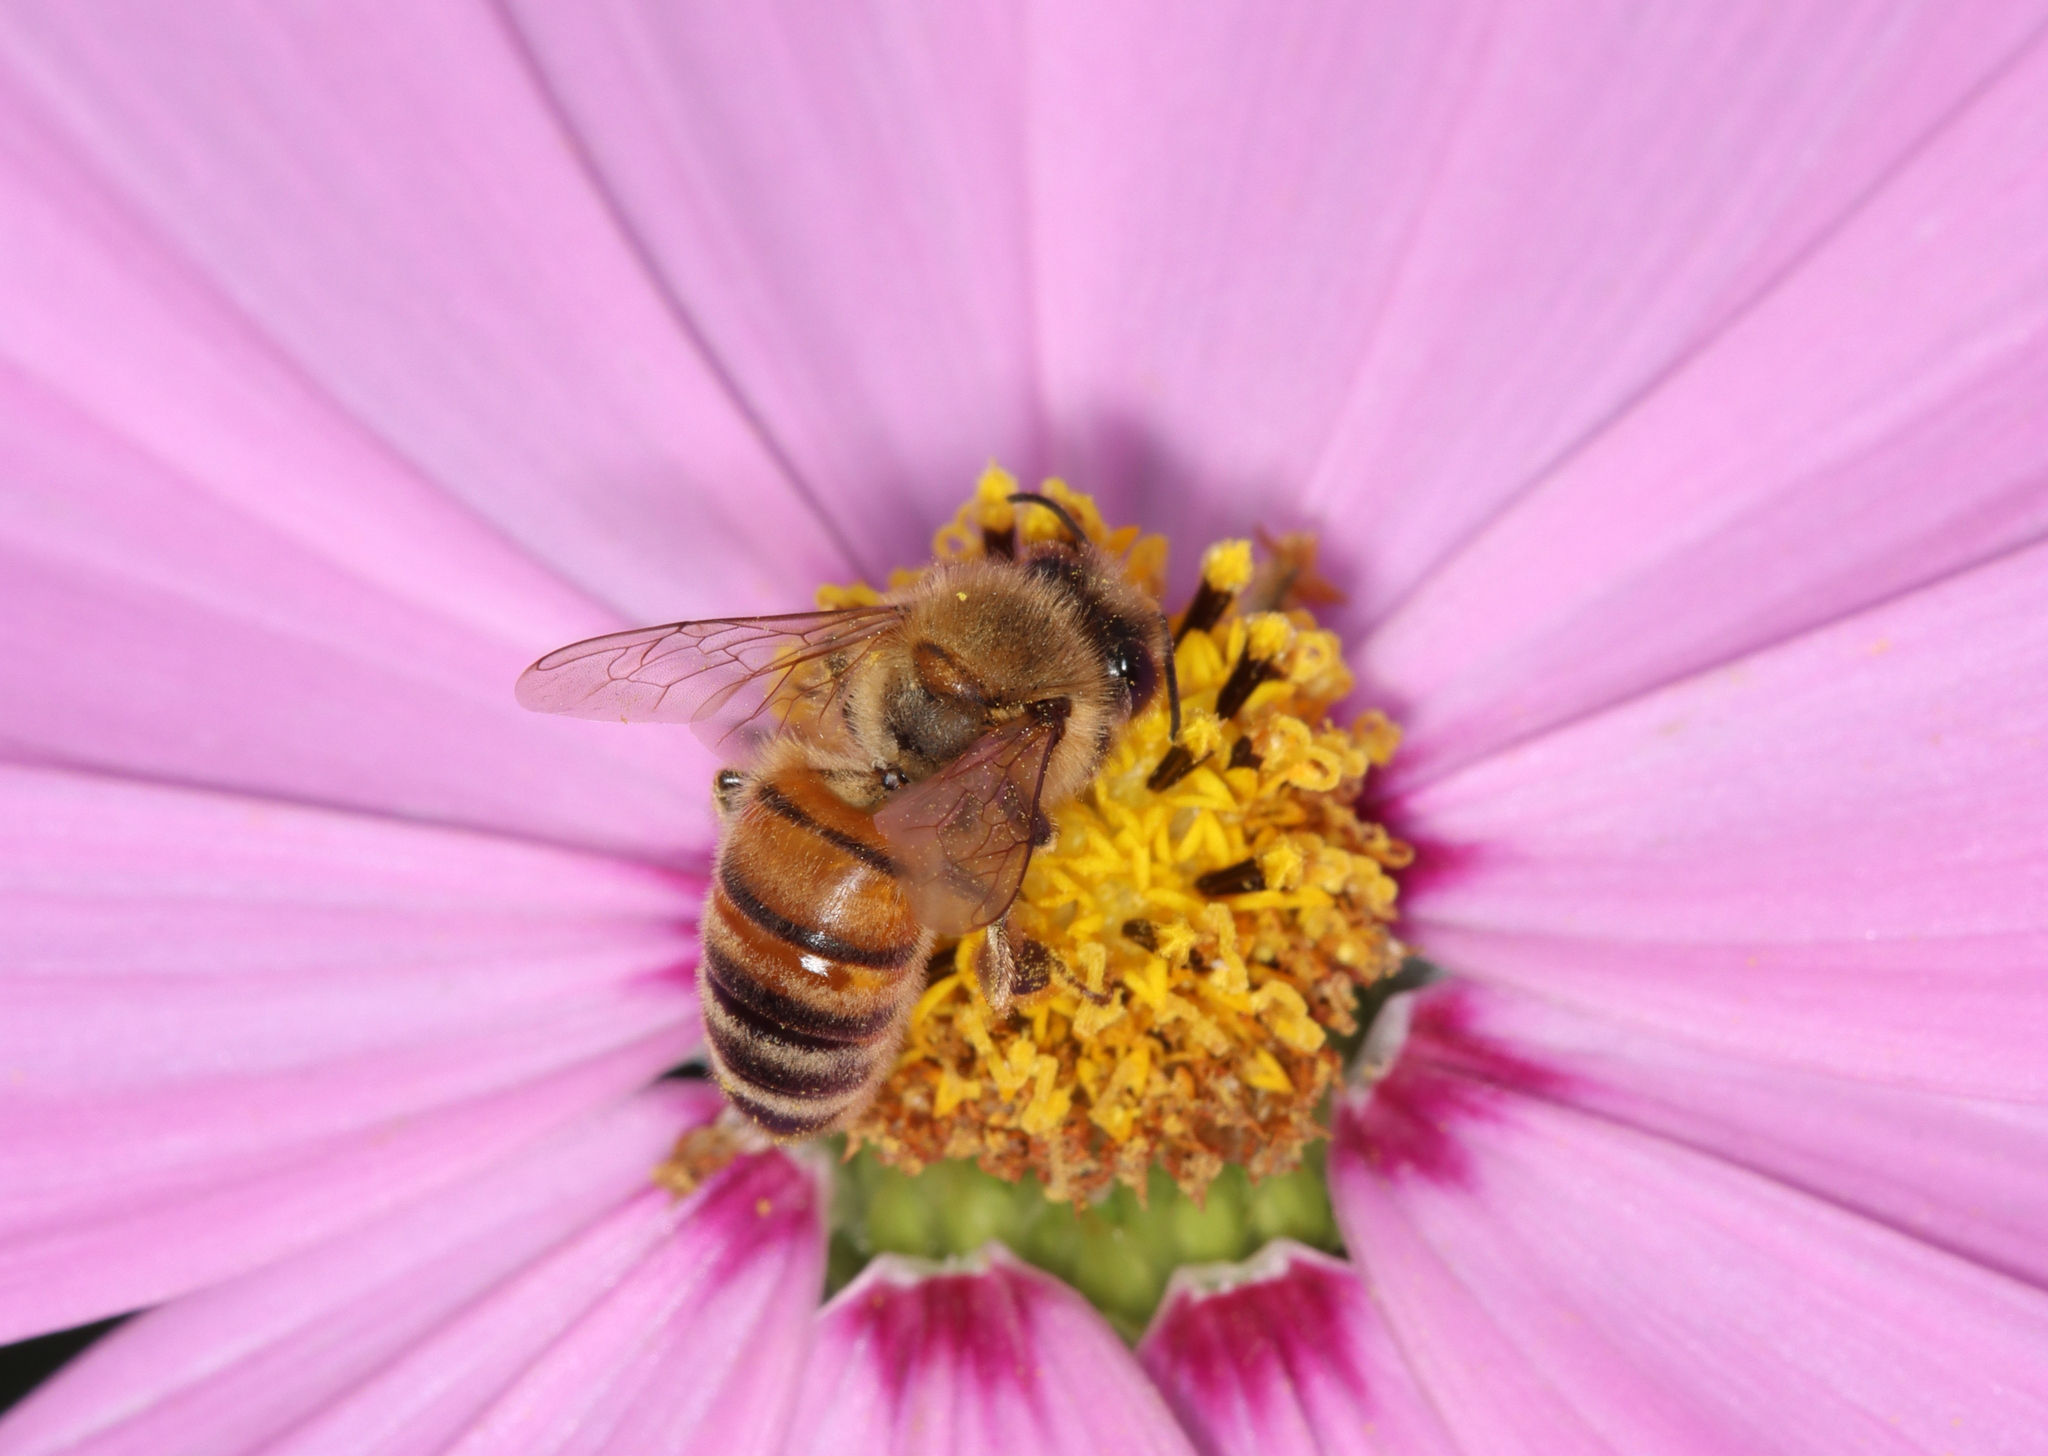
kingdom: Animalia
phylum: Arthropoda
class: Insecta
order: Hymenoptera
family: Apidae
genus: Apis
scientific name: Apis mellifera
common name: Honey bee
